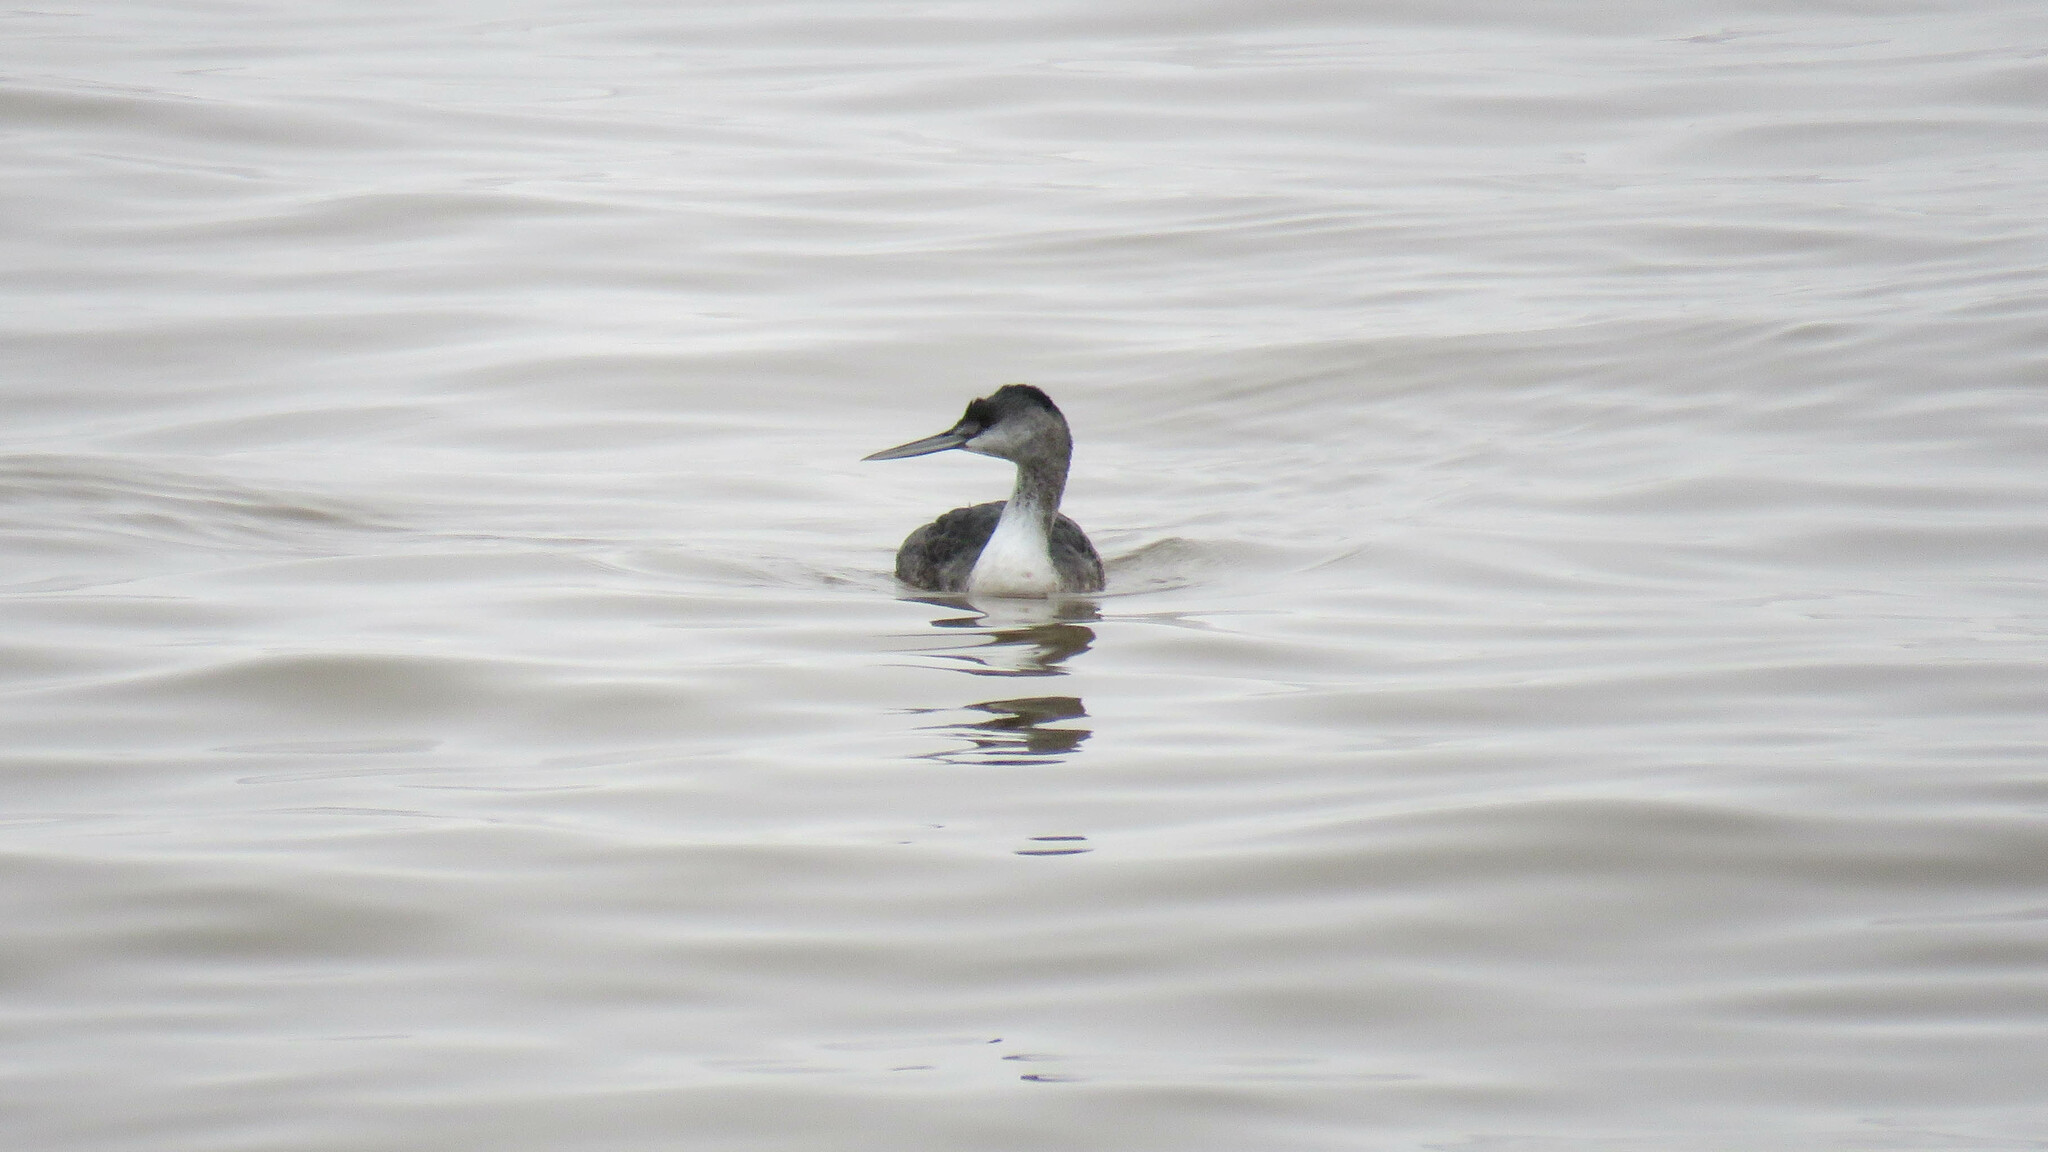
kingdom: Animalia
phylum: Chordata
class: Aves
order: Podicipediformes
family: Podicipedidae
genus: Podiceps
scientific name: Podiceps major
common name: Great grebe
